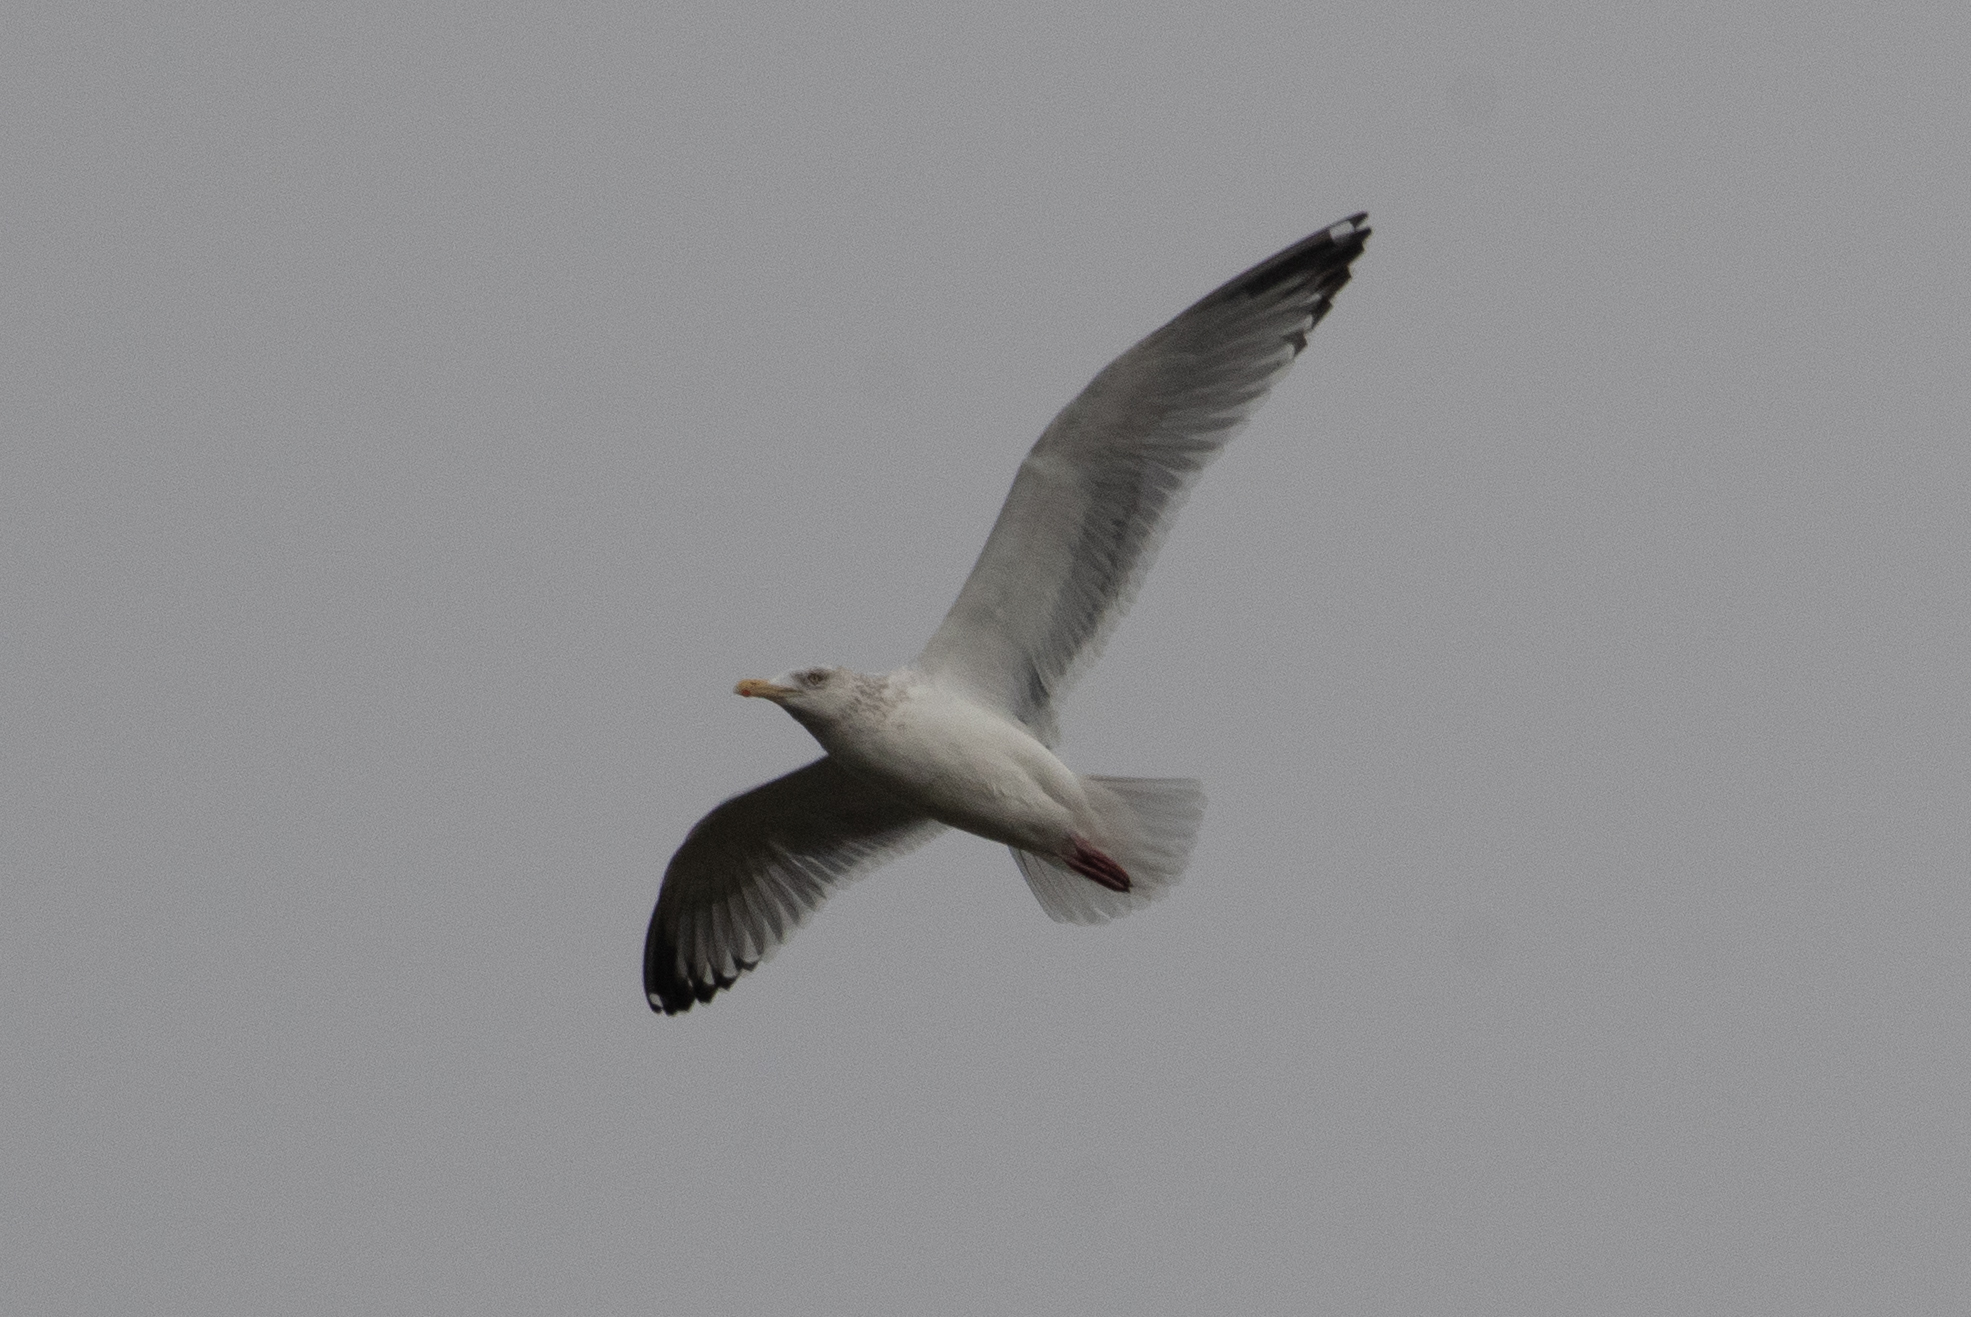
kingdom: Animalia
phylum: Chordata
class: Aves
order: Charadriiformes
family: Laridae
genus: Larus
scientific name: Larus argentatus
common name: Herring gull
